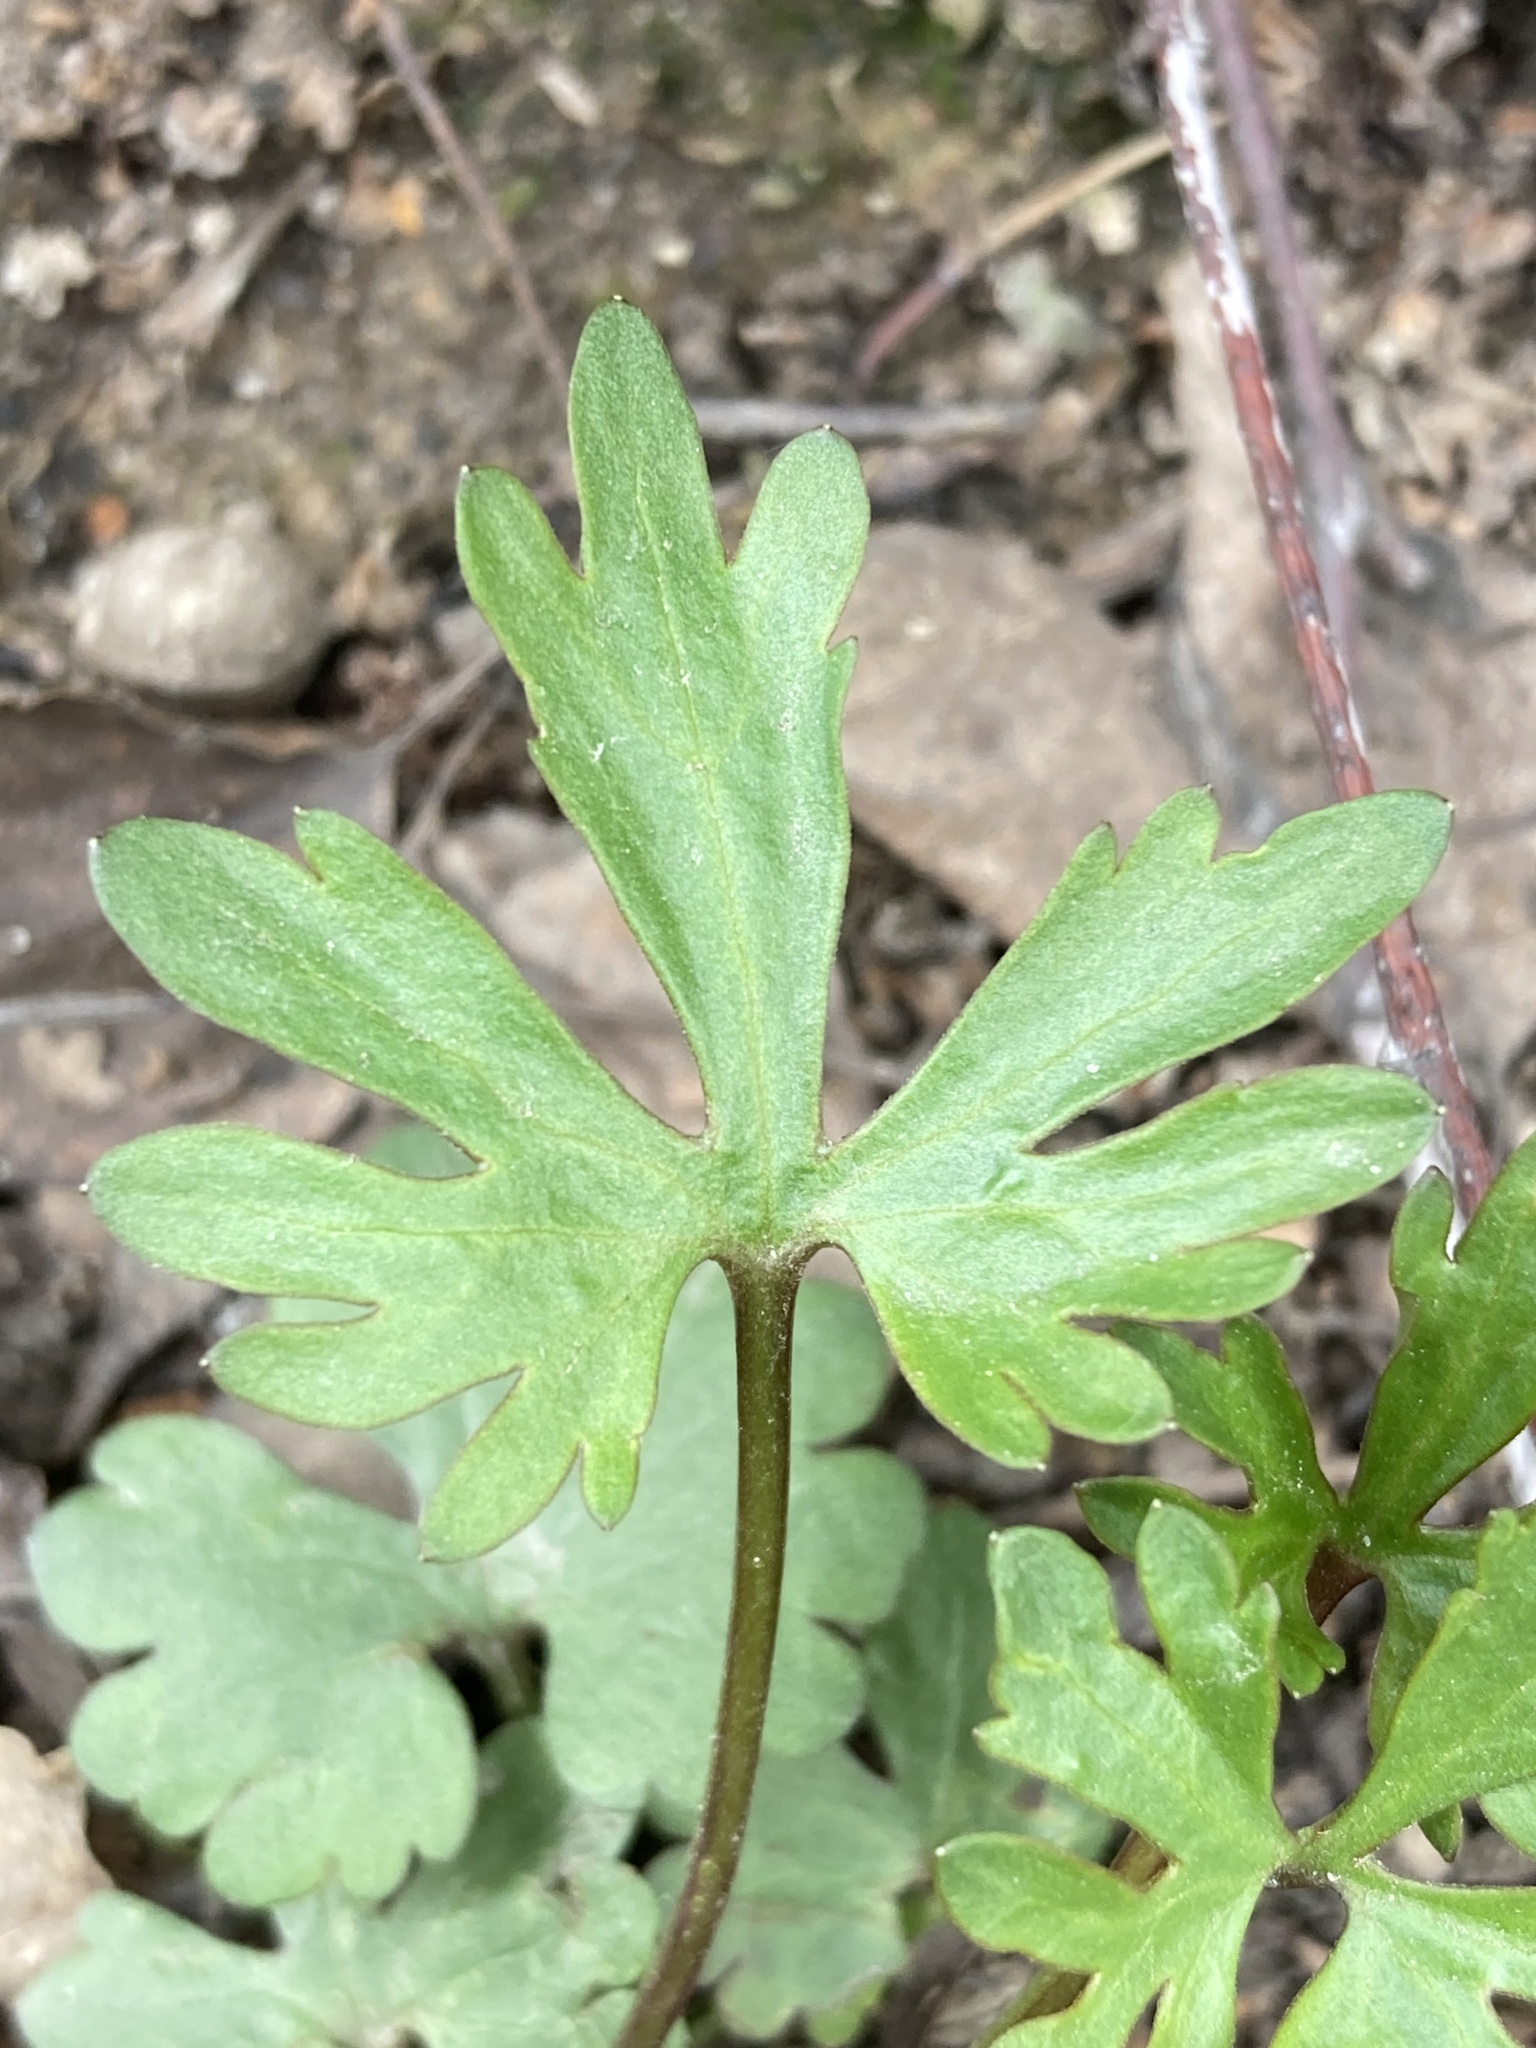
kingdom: Plantae
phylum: Tracheophyta
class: Magnoliopsida
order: Ranunculales
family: Ranunculaceae
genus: Ranunculus
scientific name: Ranunculus auricomus
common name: Goldilocks buttercup
